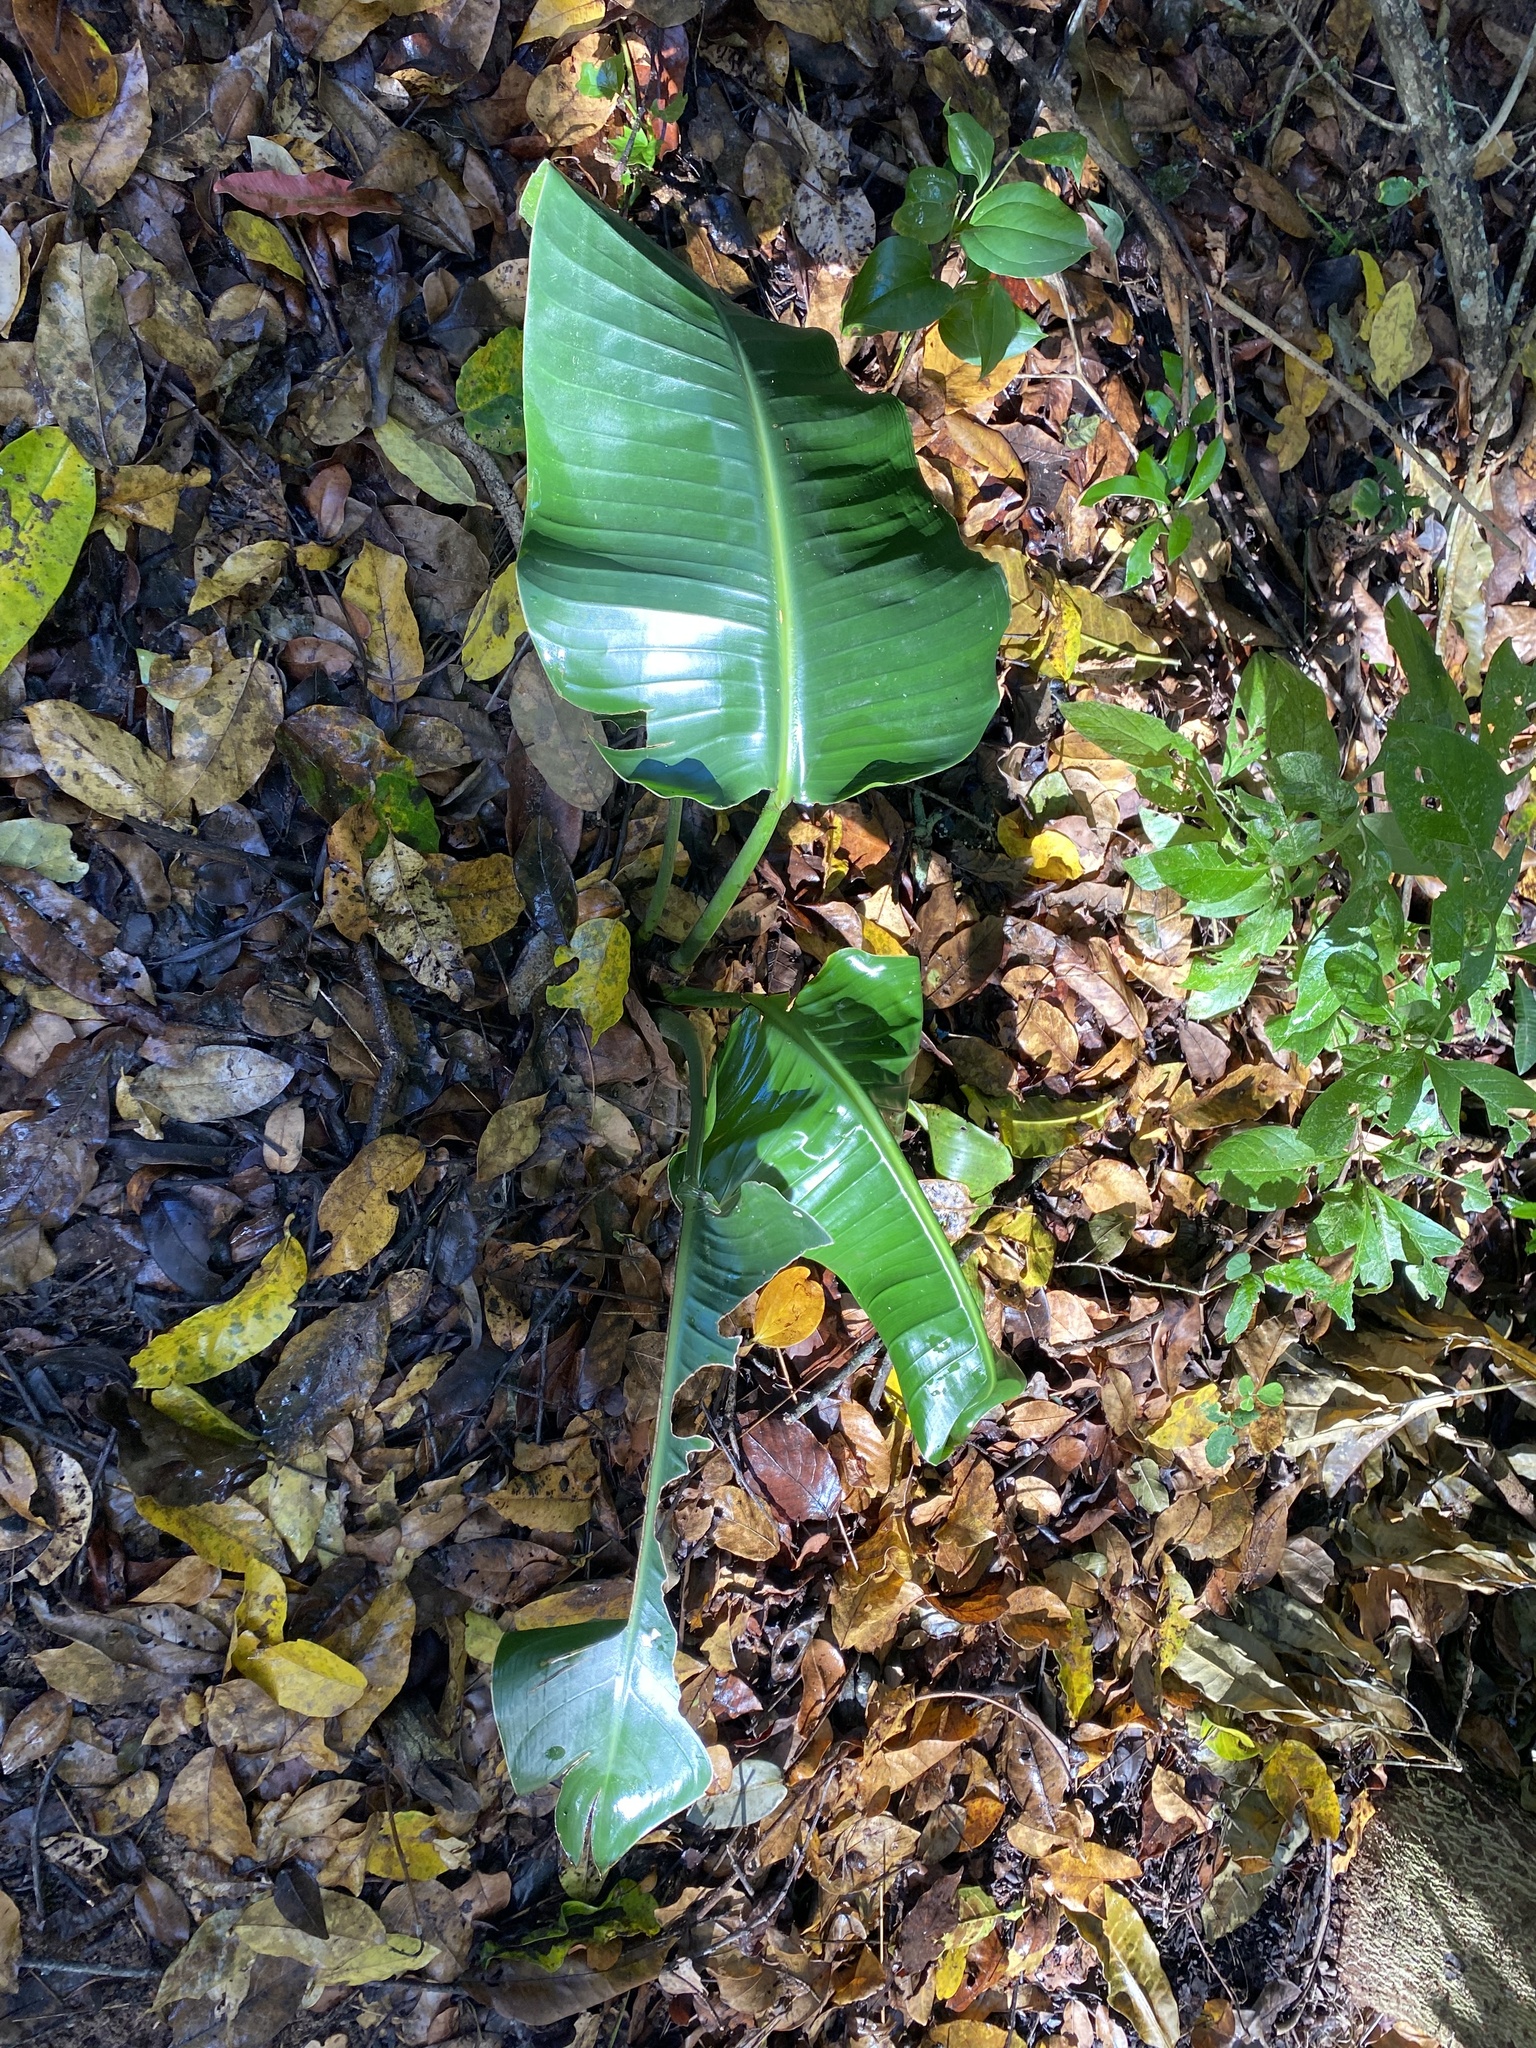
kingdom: Plantae
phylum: Tracheophyta
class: Liliopsida
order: Zingiberales
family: Strelitziaceae
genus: Strelitzia
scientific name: Strelitzia nicolai
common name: Bird-of-paradise tree
